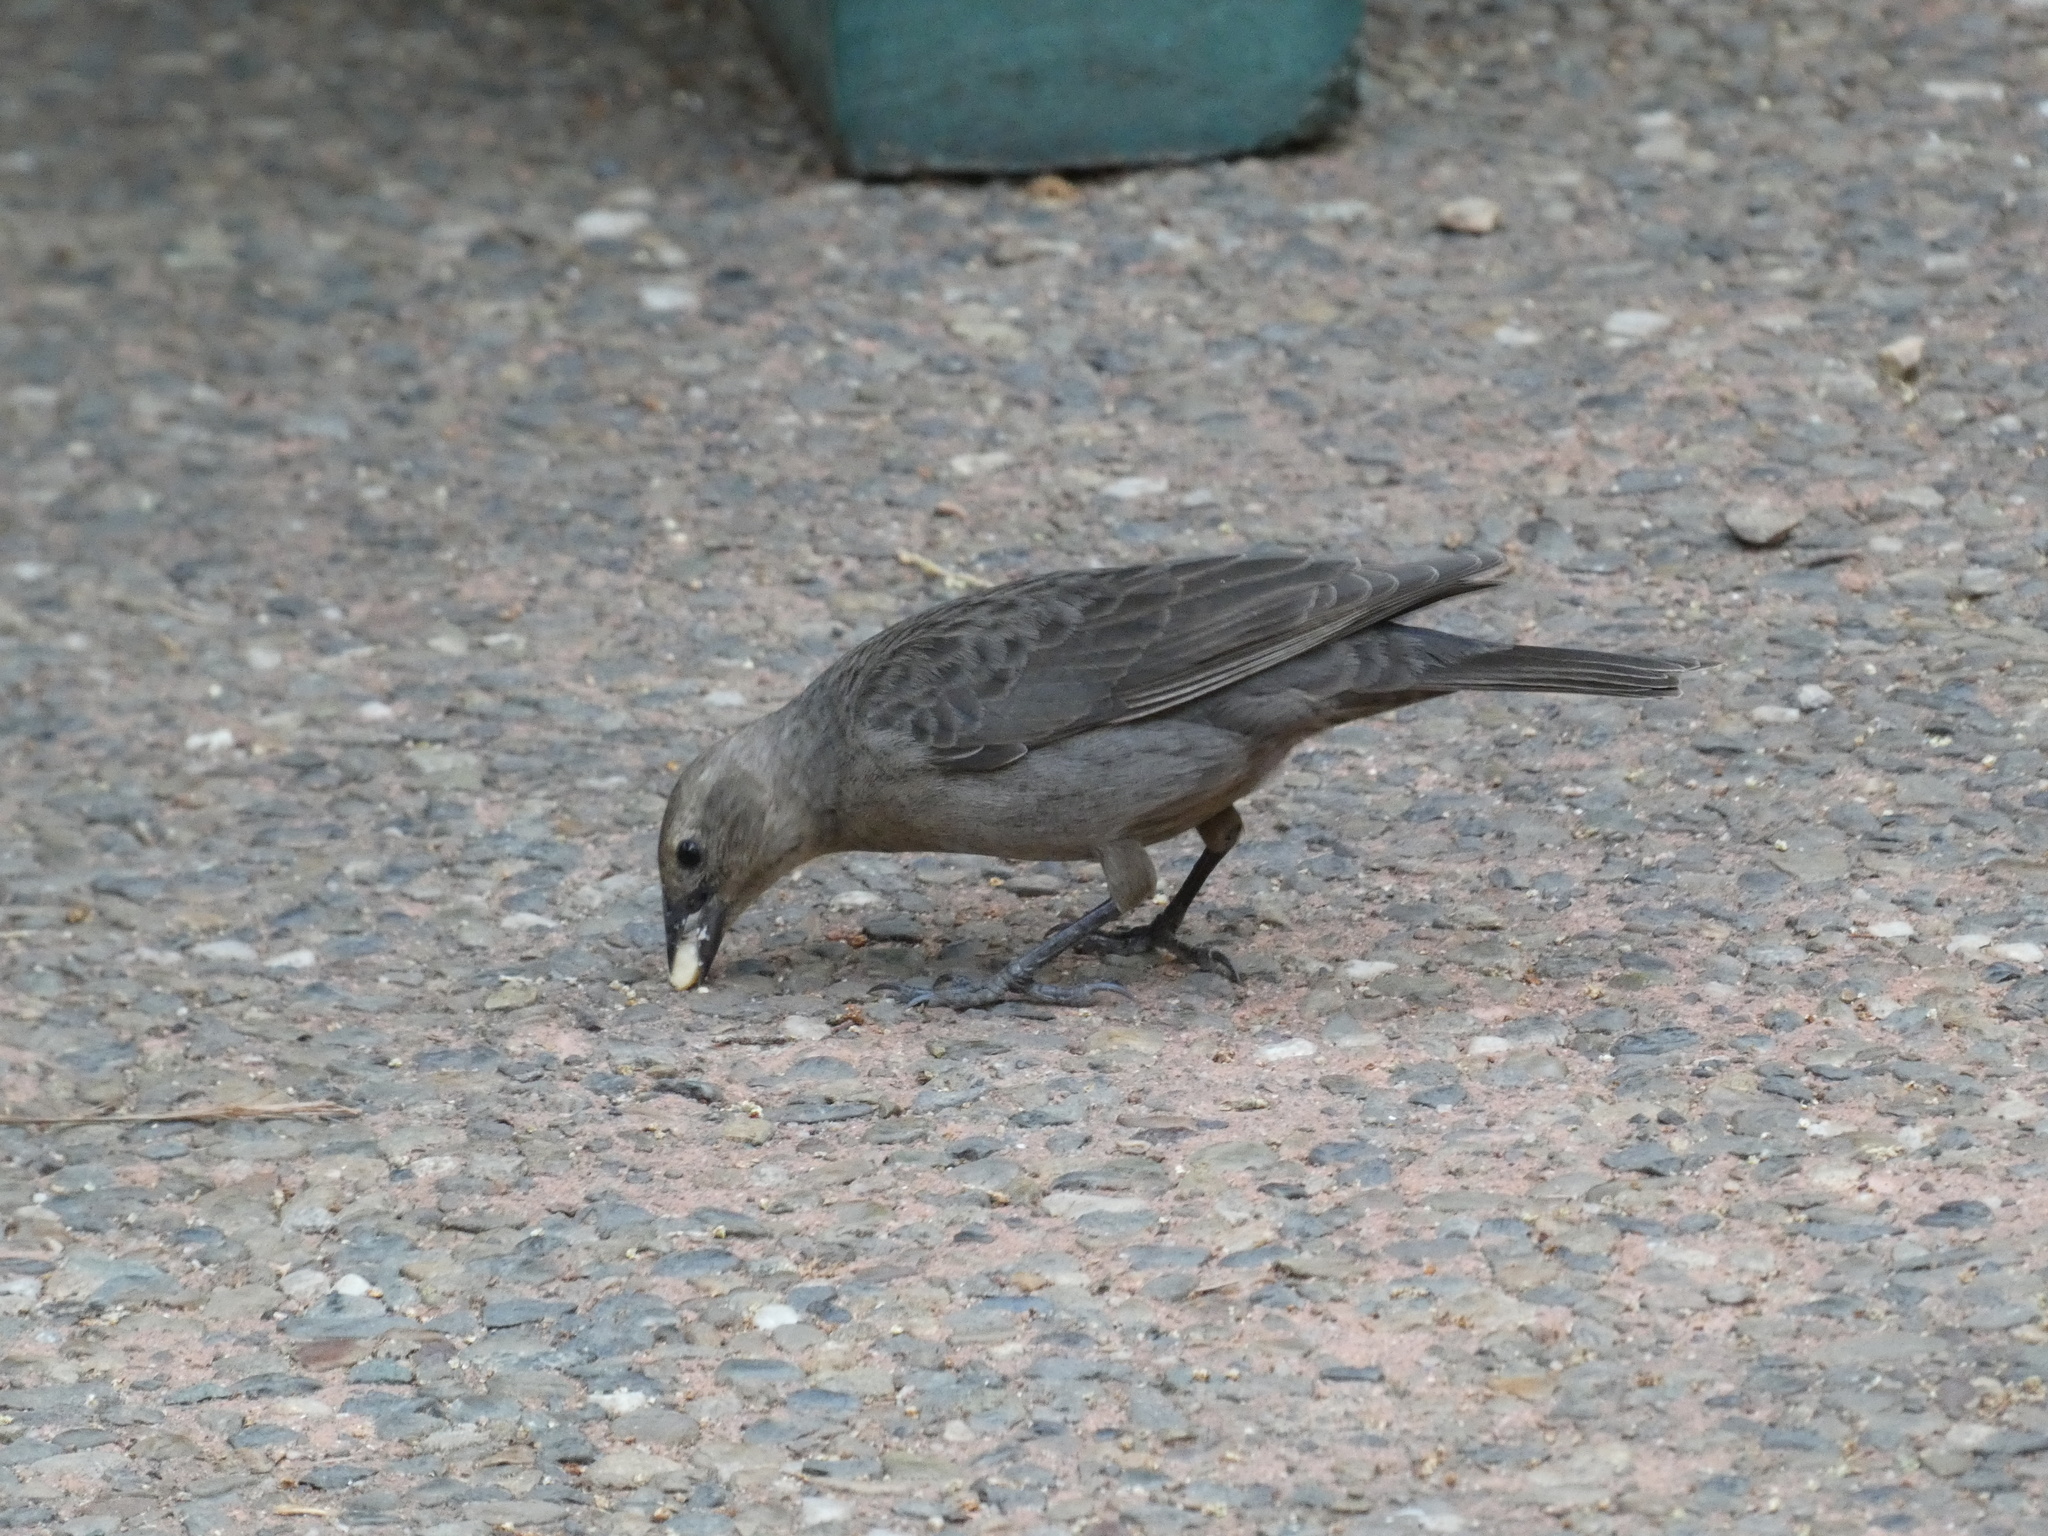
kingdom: Animalia
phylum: Chordata
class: Aves
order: Passeriformes
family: Icteridae
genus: Molothrus
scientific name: Molothrus ater
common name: Brown-headed cowbird
